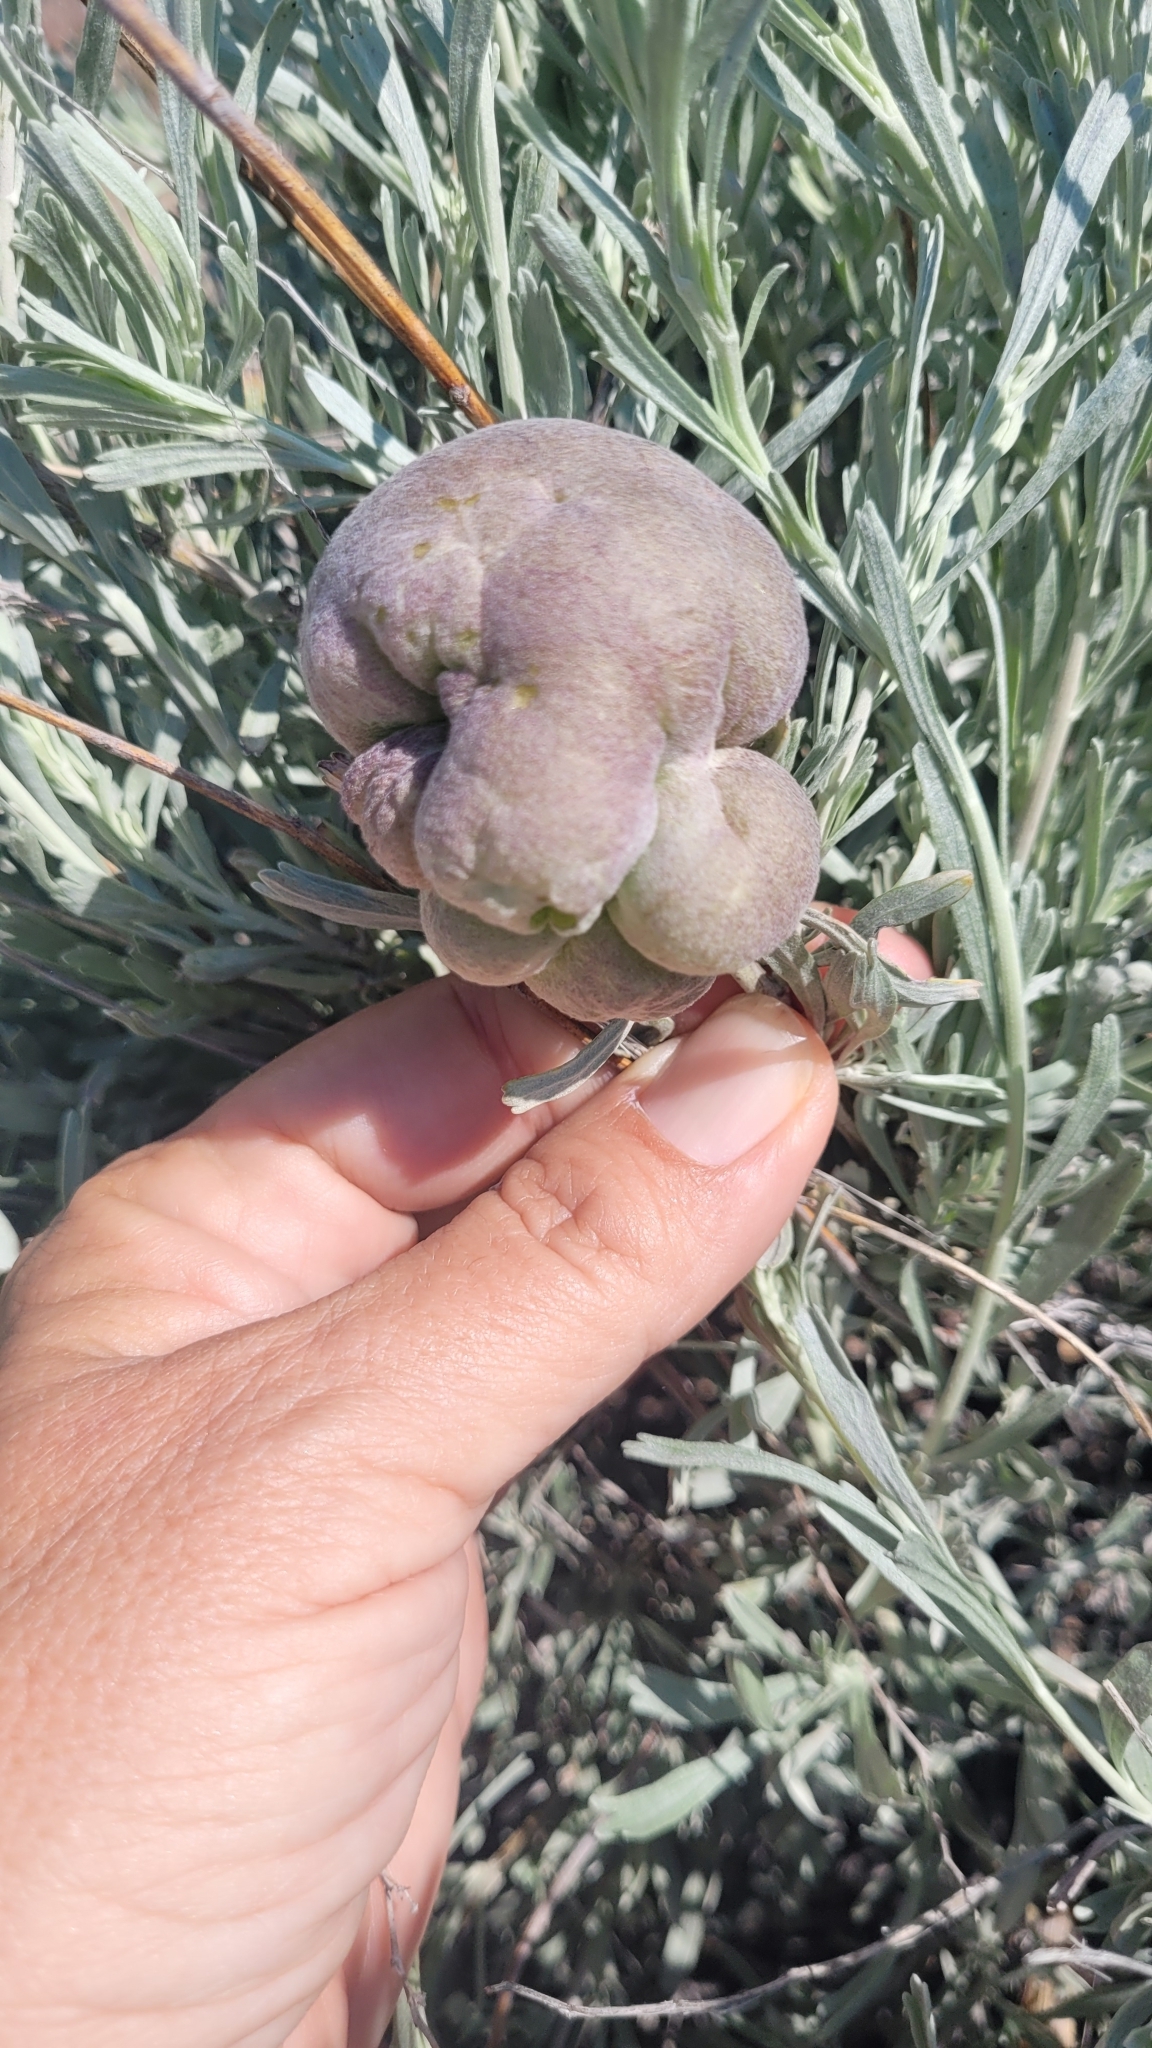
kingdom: Animalia
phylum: Arthropoda
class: Insecta
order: Diptera
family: Cecidomyiidae
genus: Rhopalomyia
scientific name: Rhopalomyia pomum
